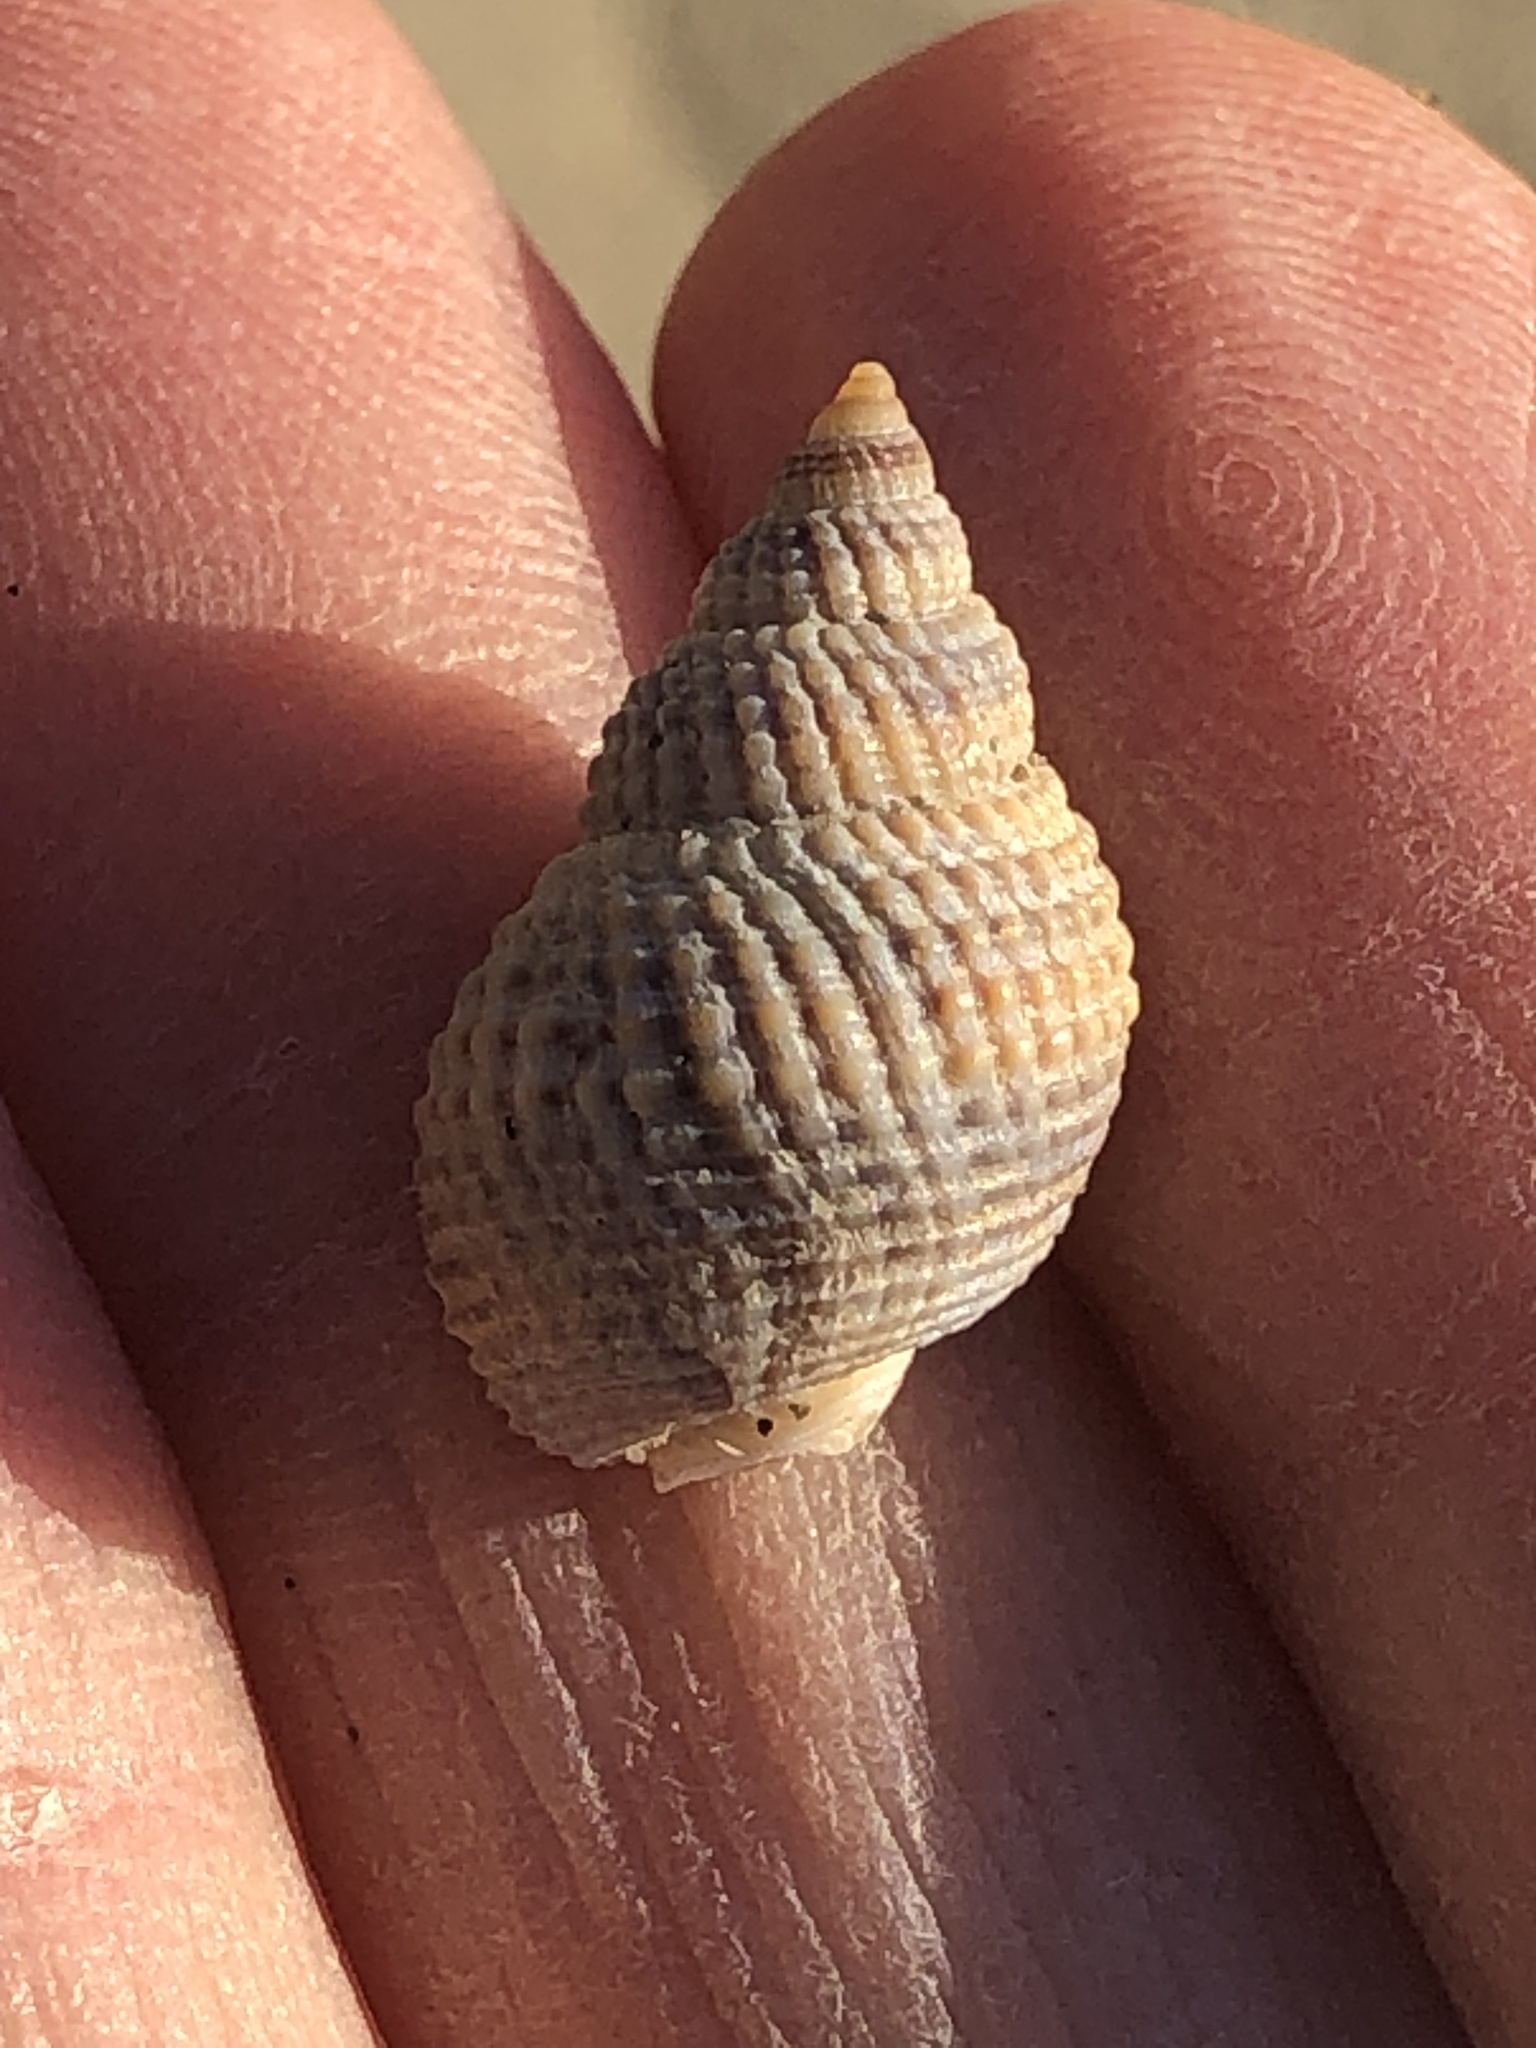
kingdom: Animalia
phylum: Mollusca
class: Gastropoda
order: Neogastropoda
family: Nassariidae
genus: Caesia
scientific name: Caesia fossata
